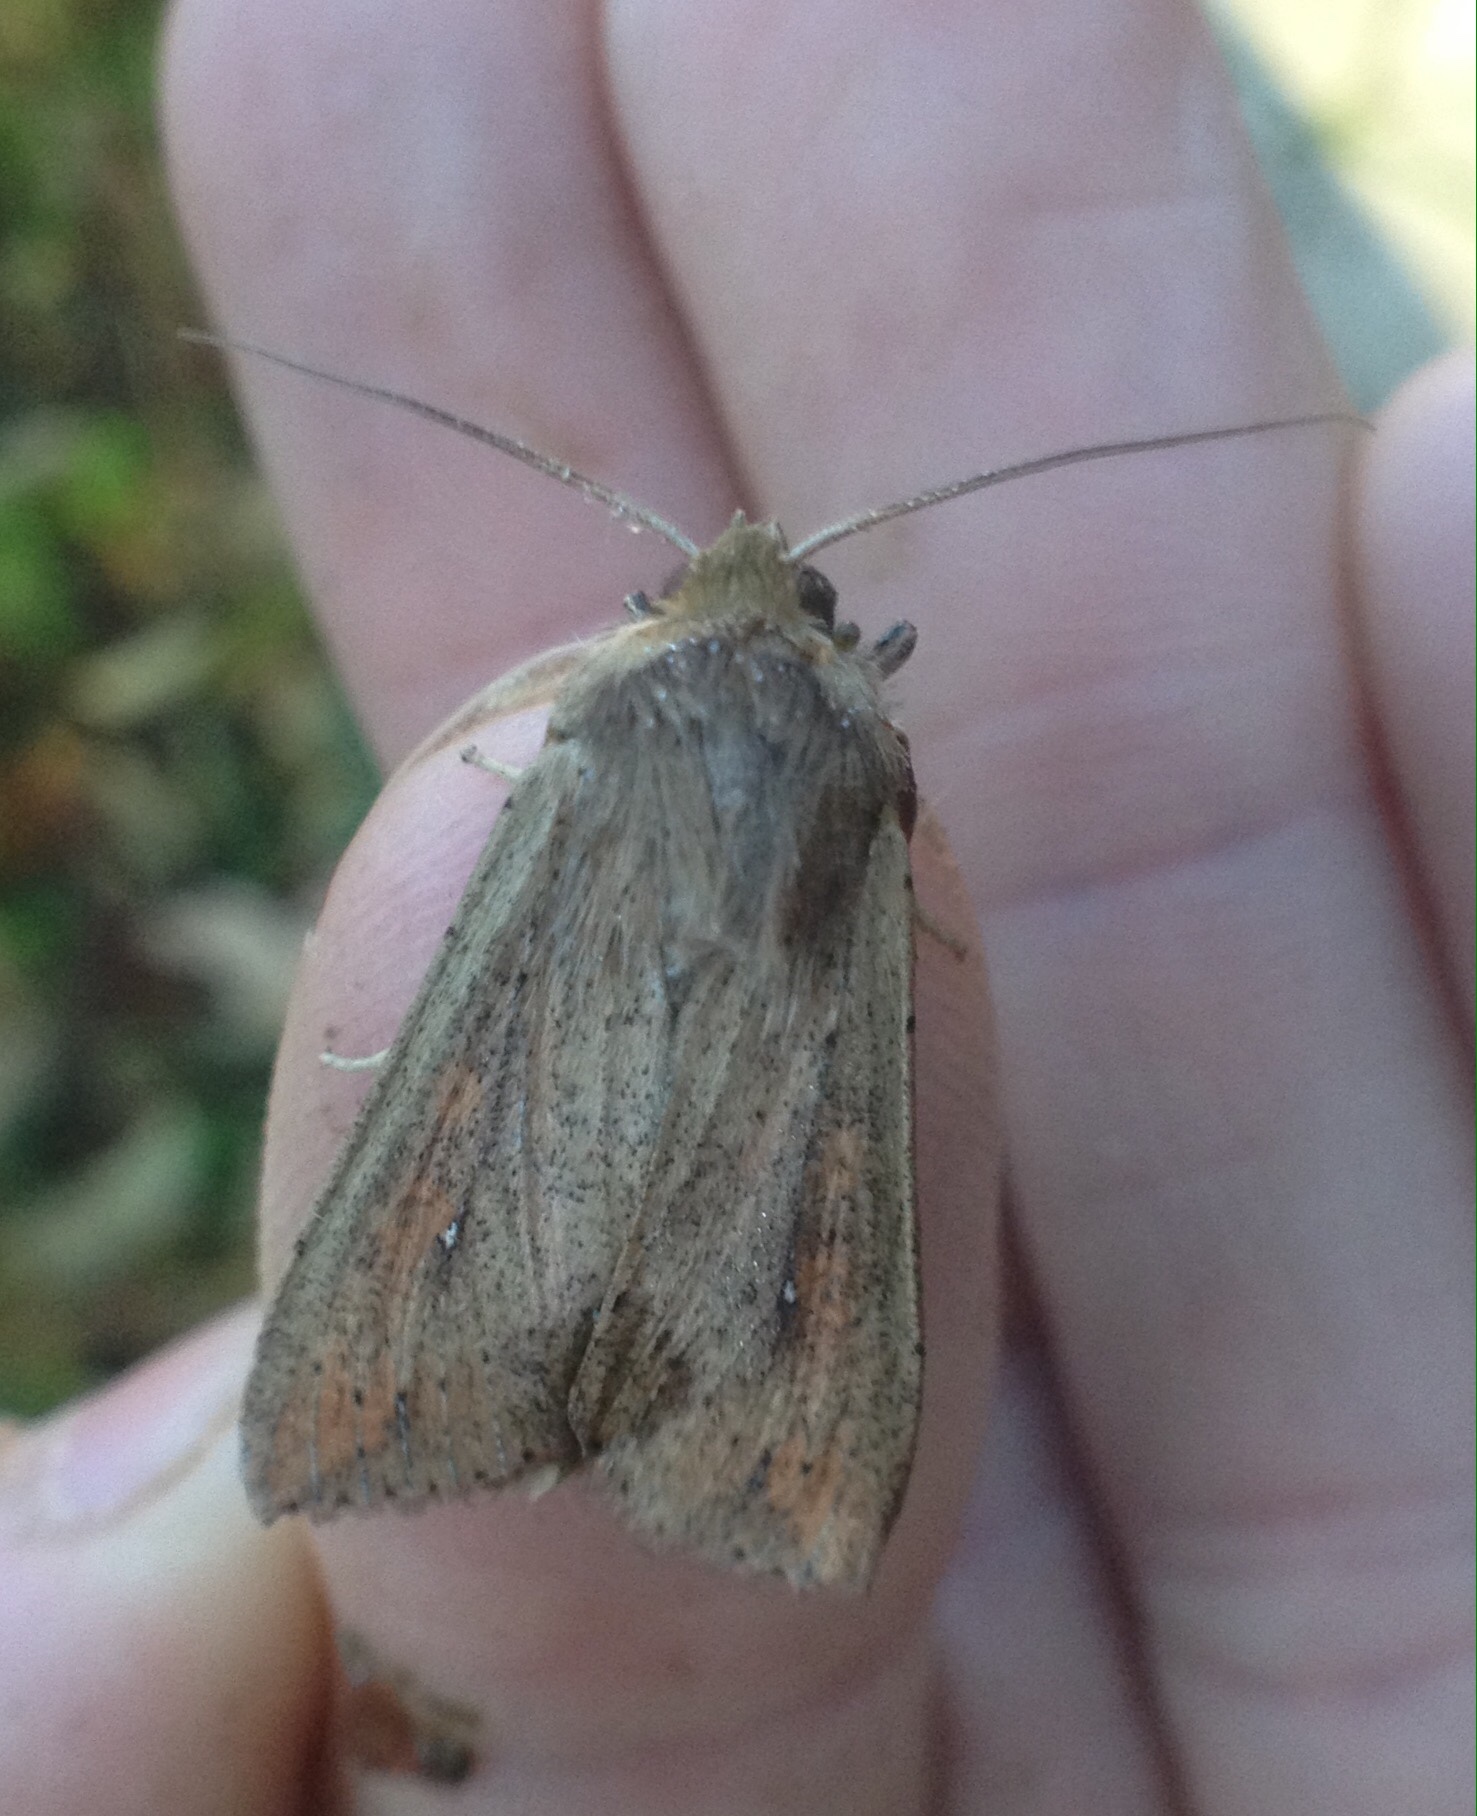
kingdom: Animalia
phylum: Arthropoda
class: Insecta
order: Lepidoptera
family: Noctuidae
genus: Mythimna
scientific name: Mythimna unipuncta
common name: White-speck
